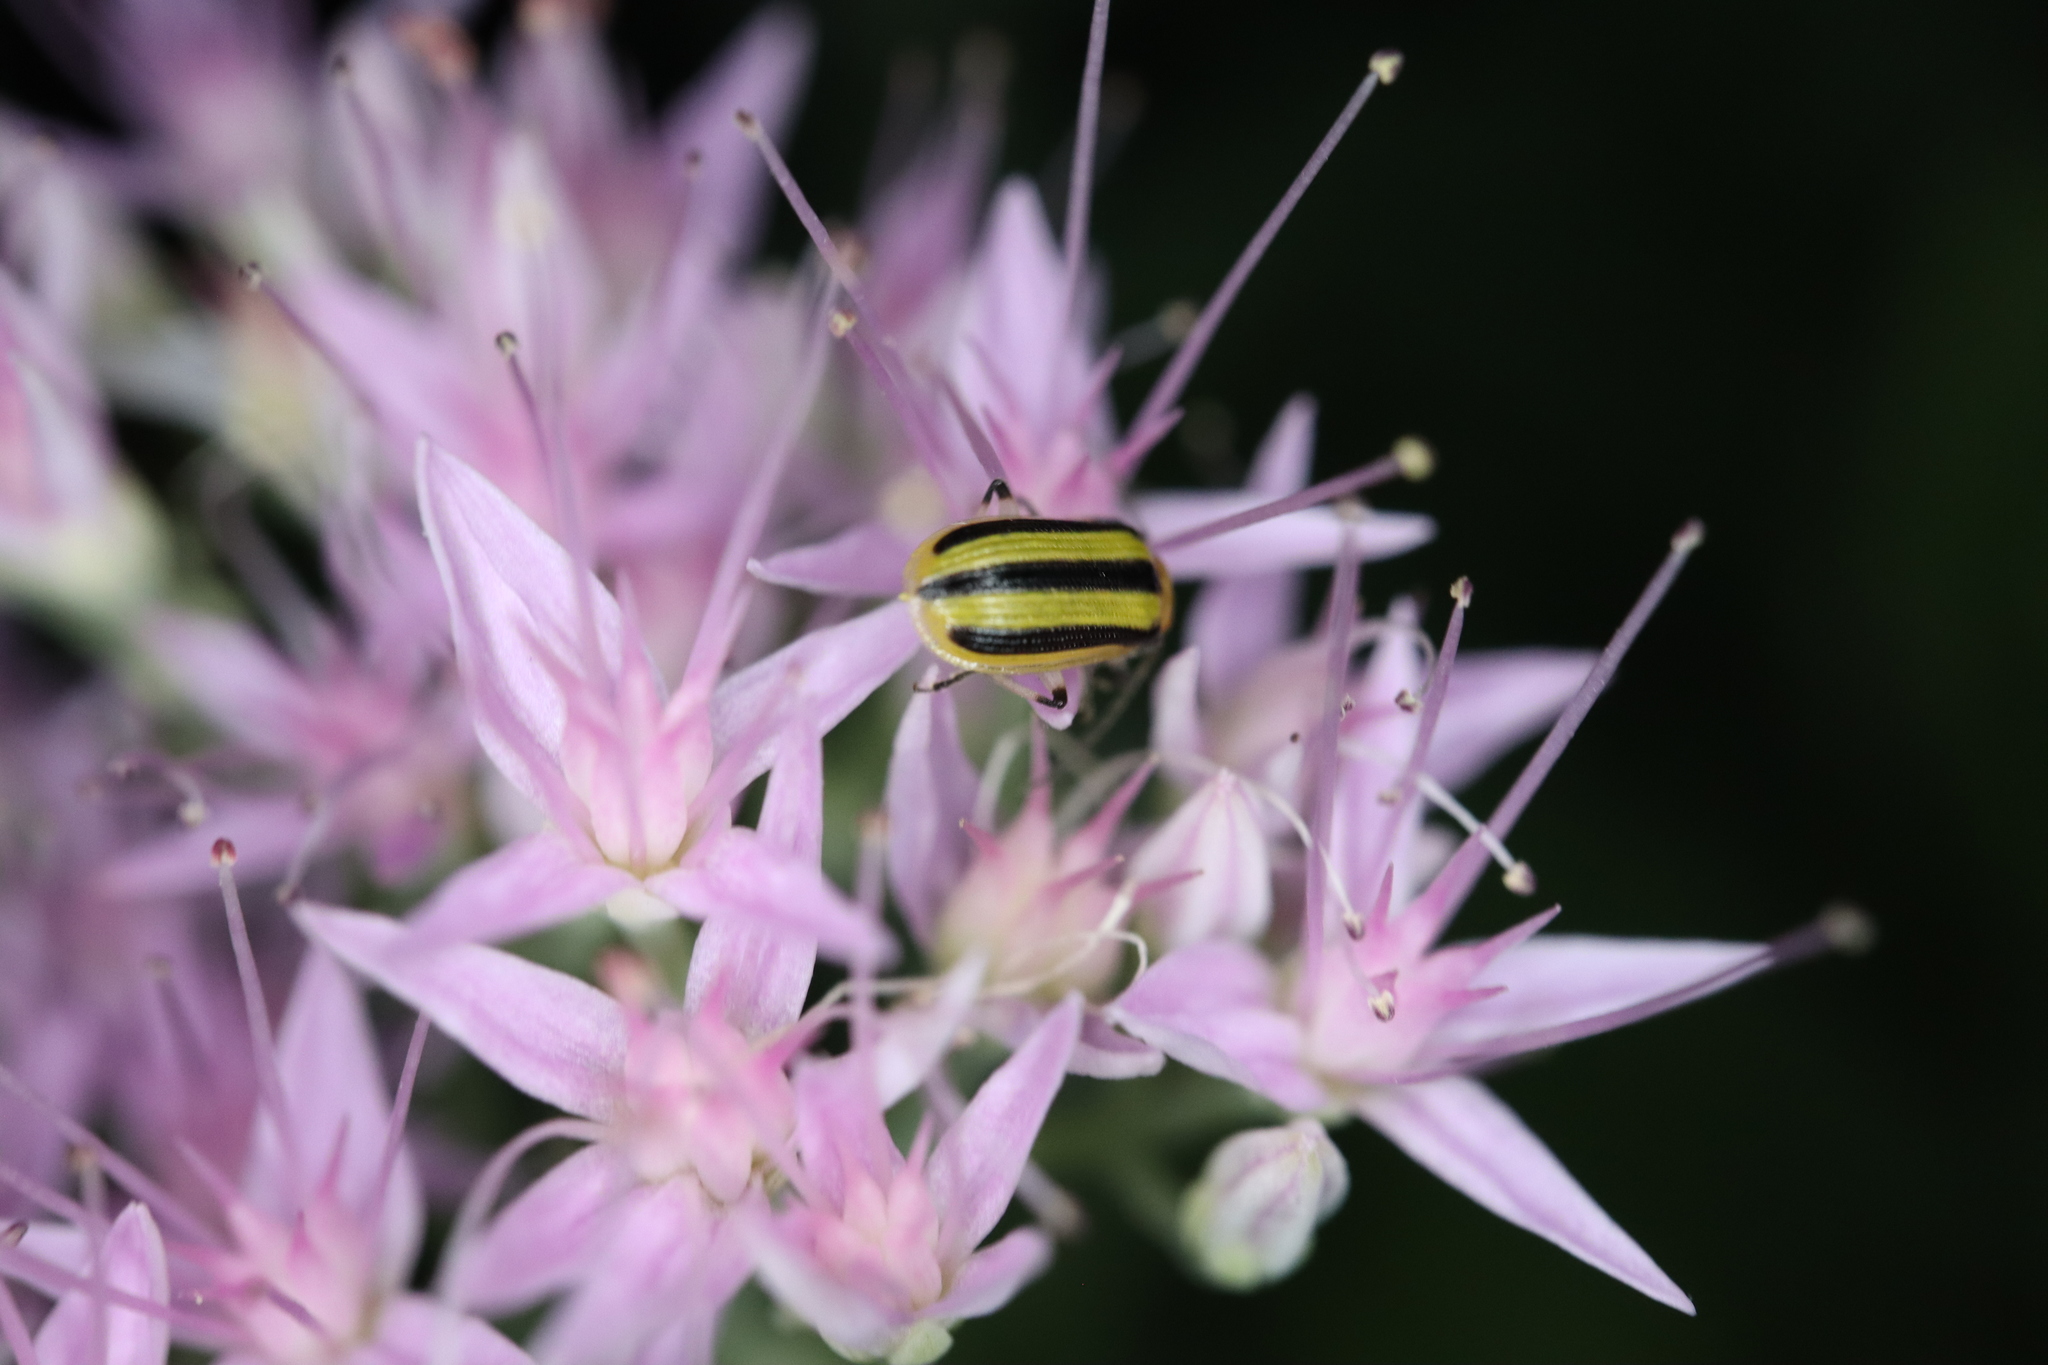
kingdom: Animalia
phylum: Arthropoda
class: Insecta
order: Coleoptera
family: Chrysomelidae
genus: Acalymma
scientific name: Acalymma vittatum
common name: Striped cucumber beetle
